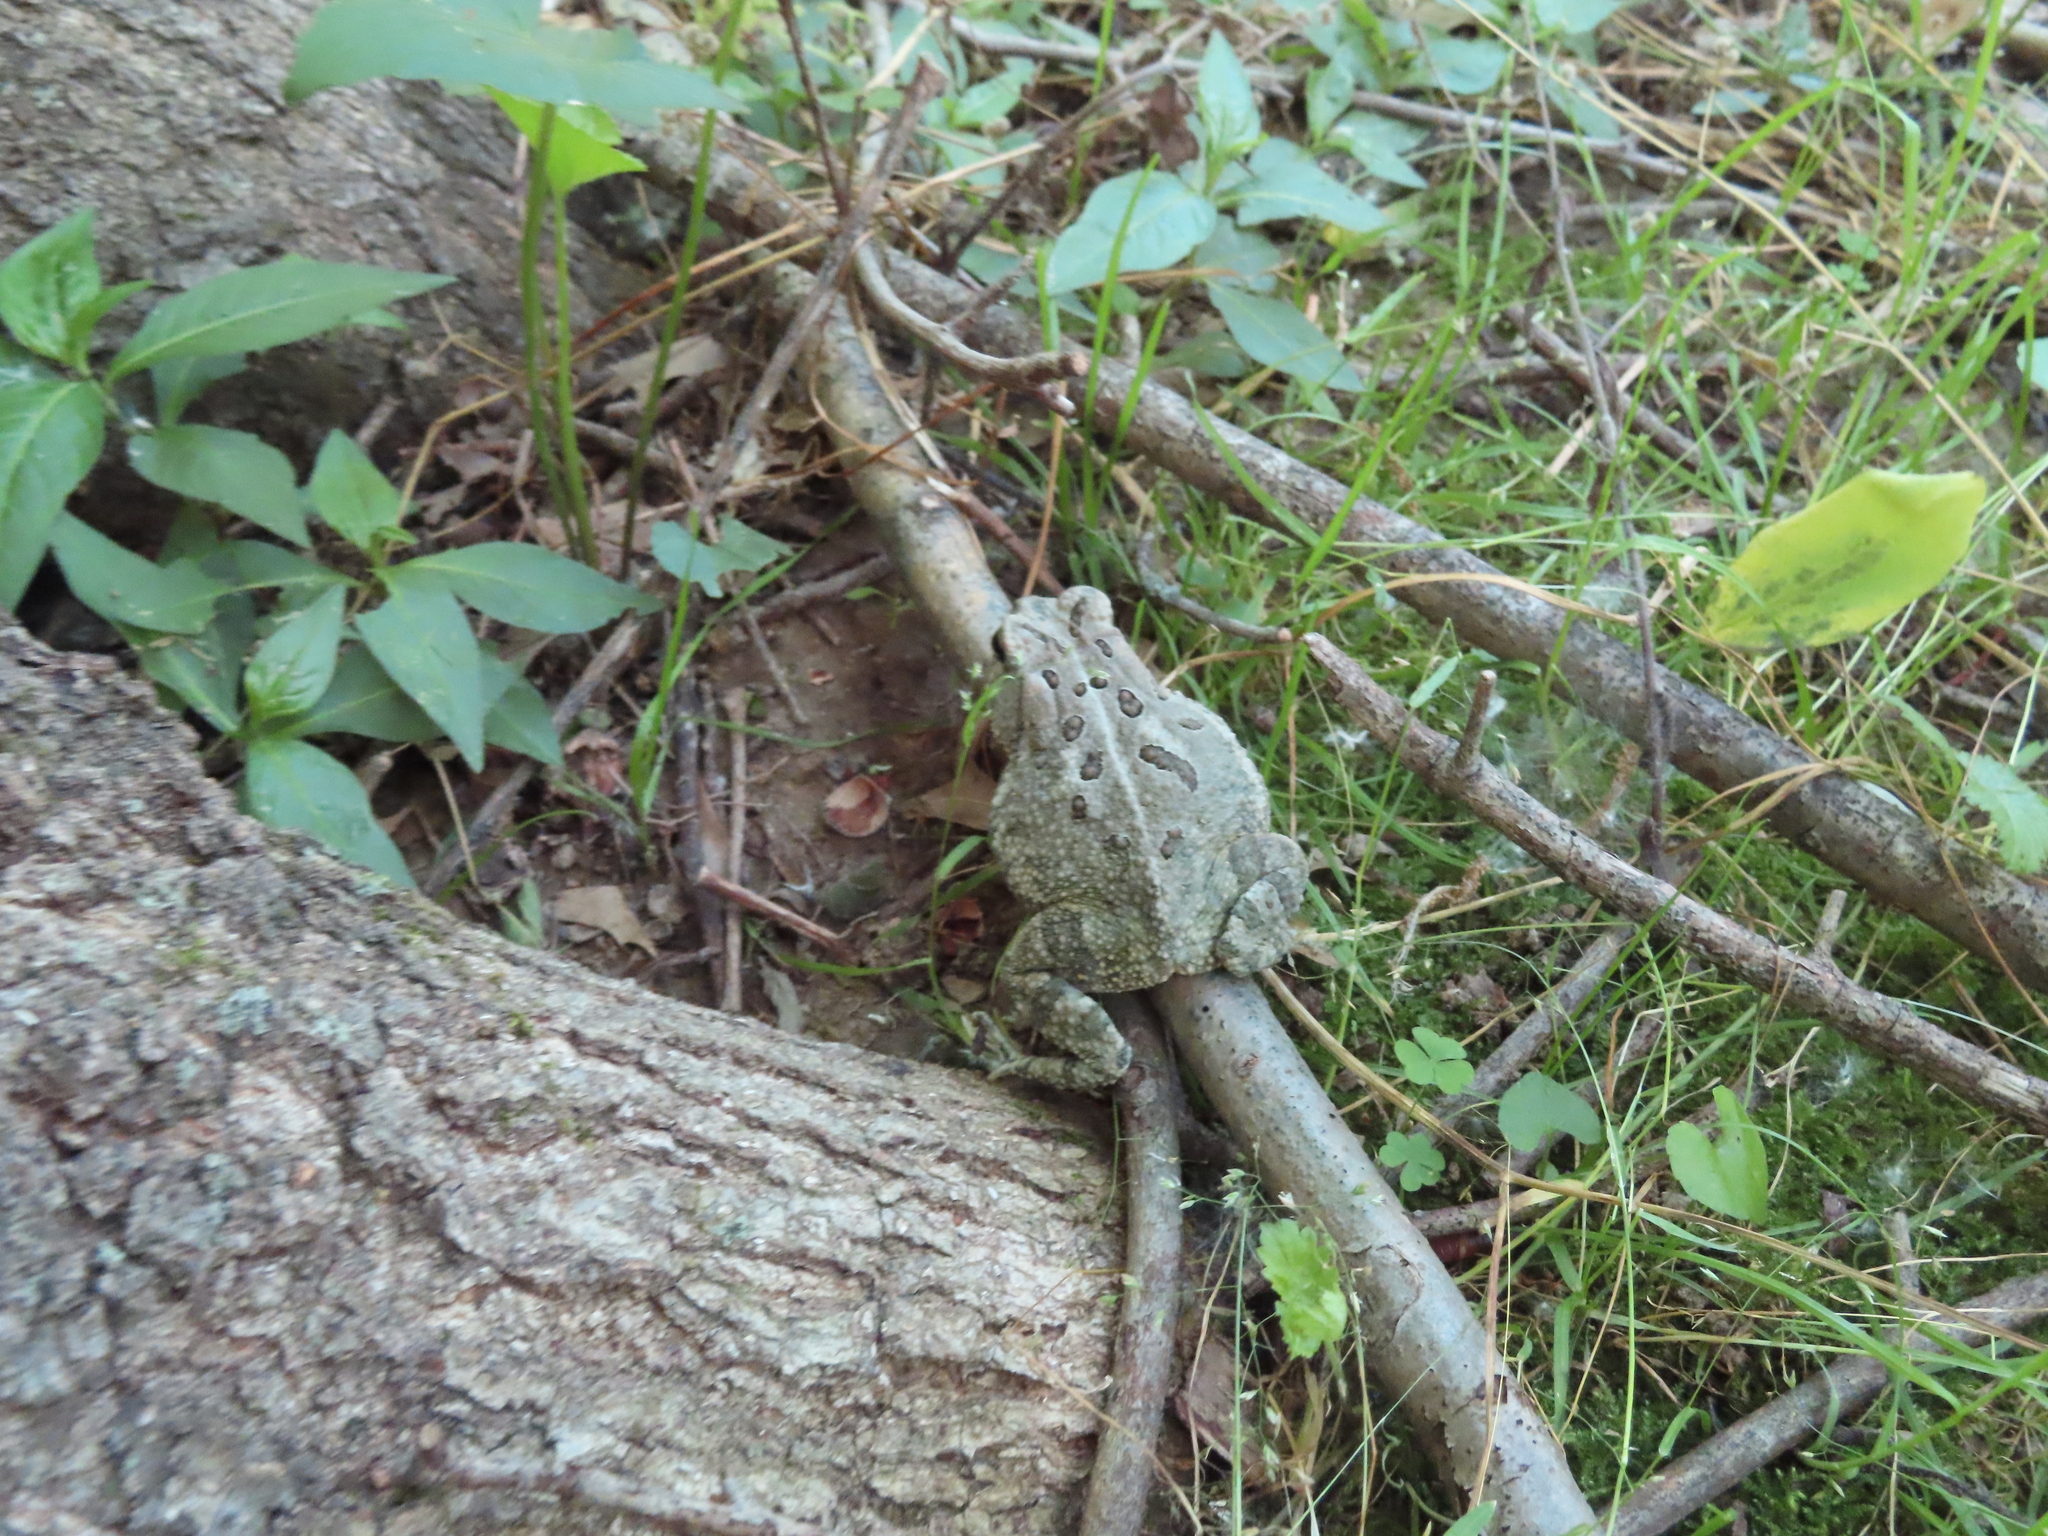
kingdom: Animalia
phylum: Chordata
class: Amphibia
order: Anura
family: Bufonidae
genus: Anaxyrus
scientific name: Anaxyrus fowleri
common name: Fowler's toad
